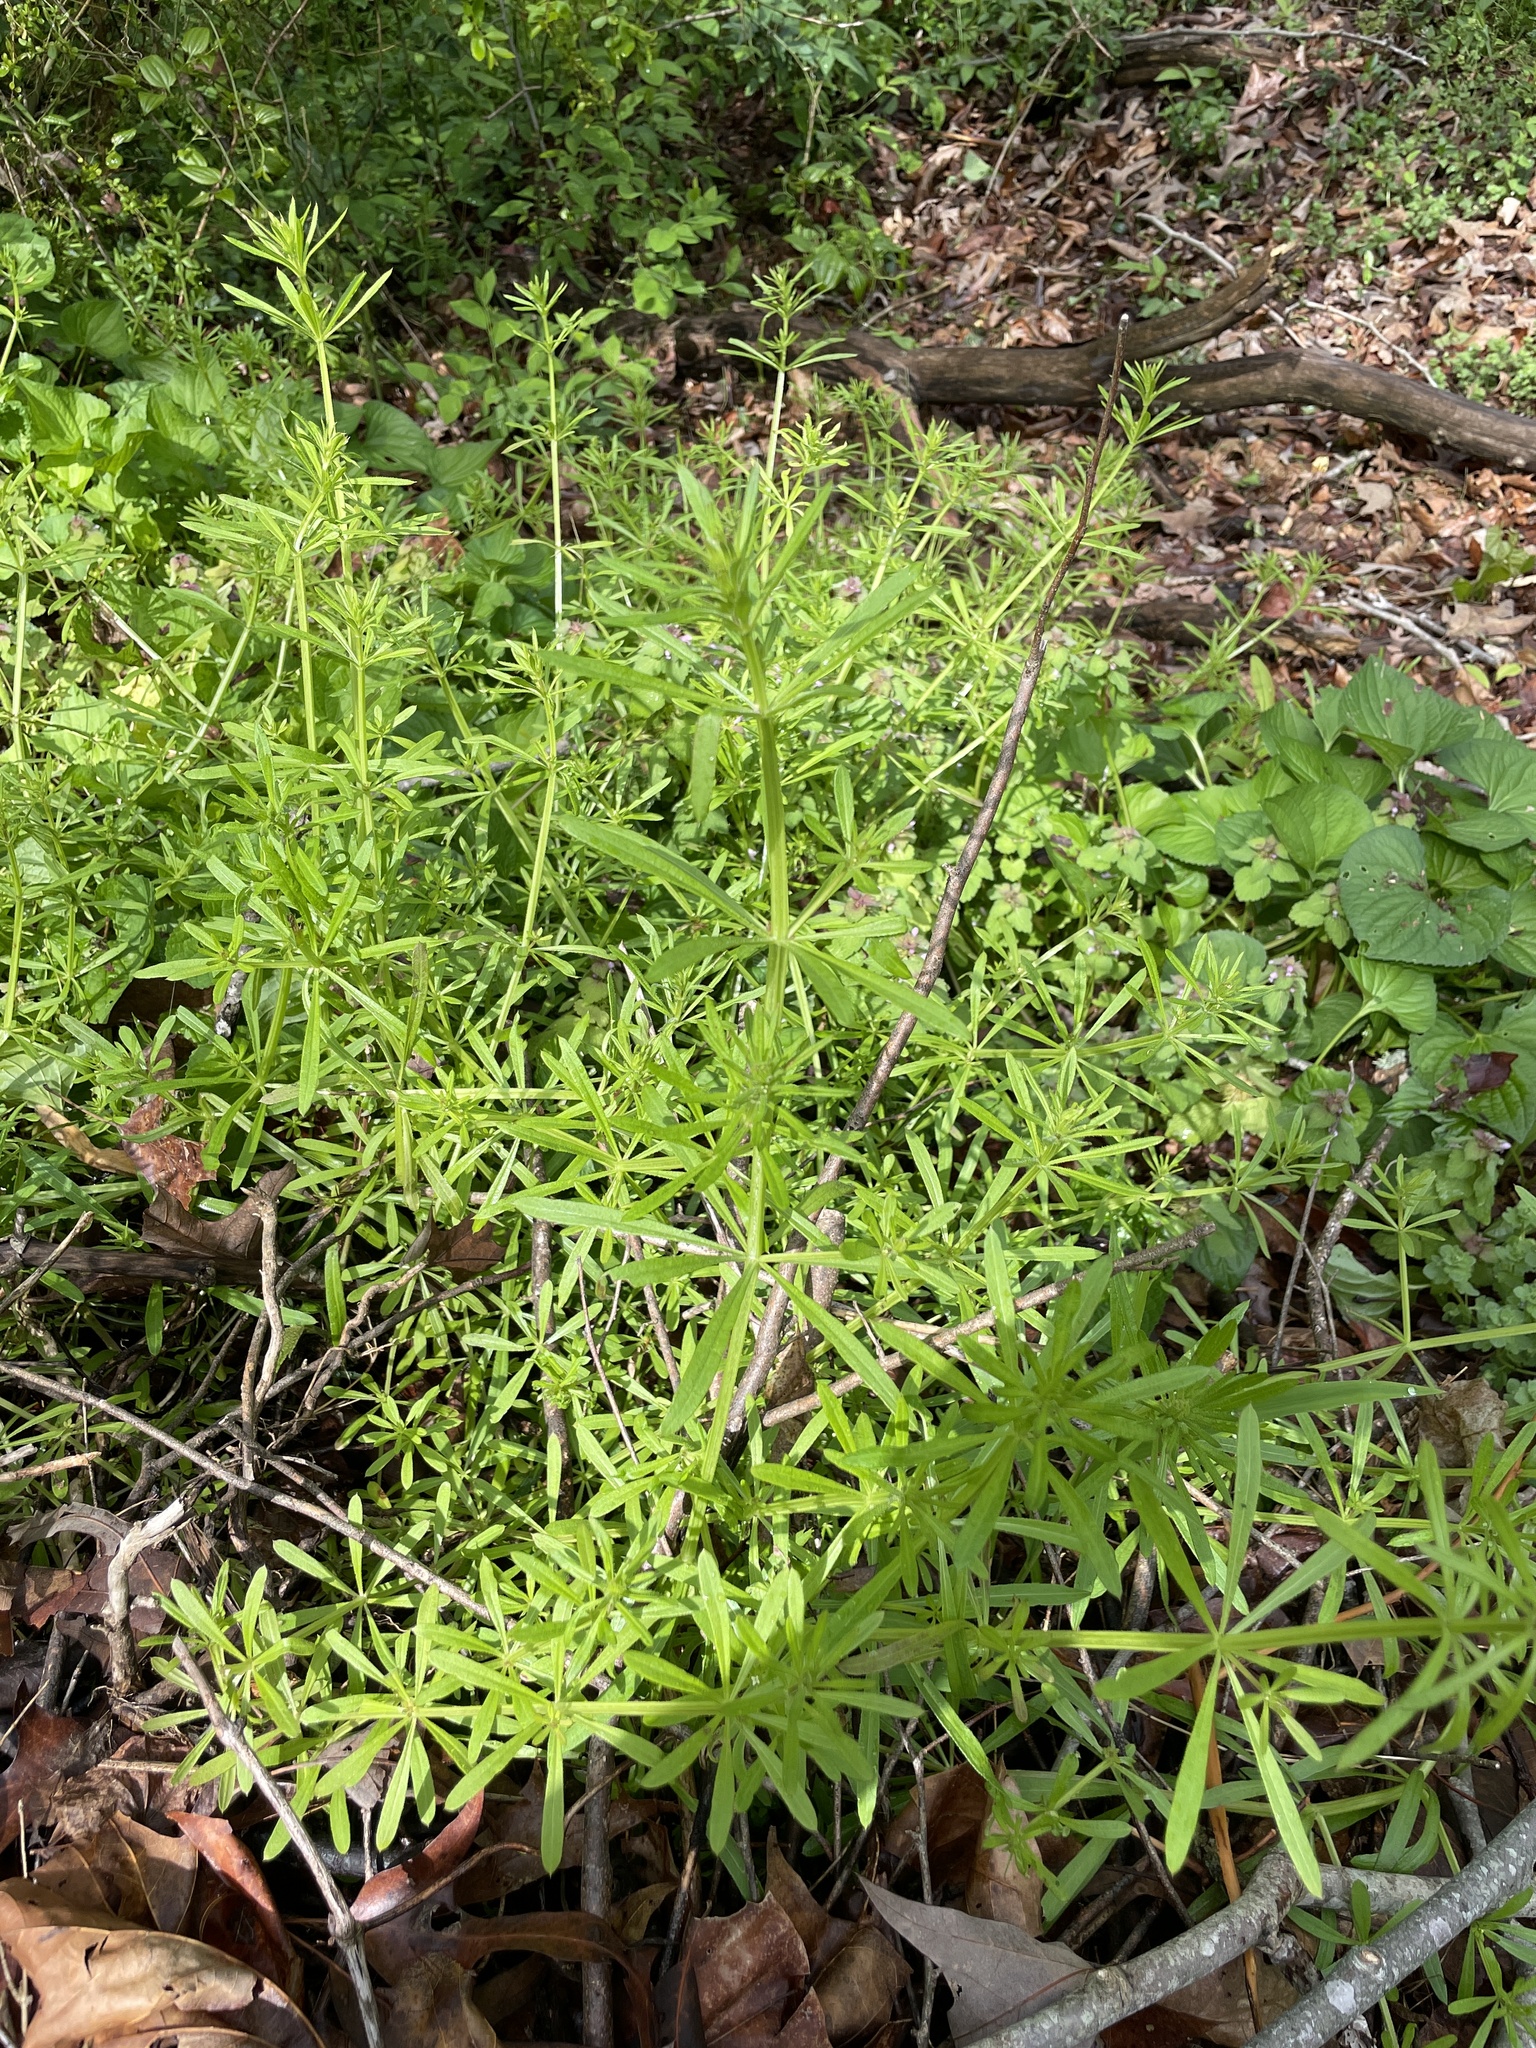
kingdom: Plantae
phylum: Tracheophyta
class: Magnoliopsida
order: Gentianales
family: Rubiaceae
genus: Galium
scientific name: Galium aparine
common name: Cleavers
